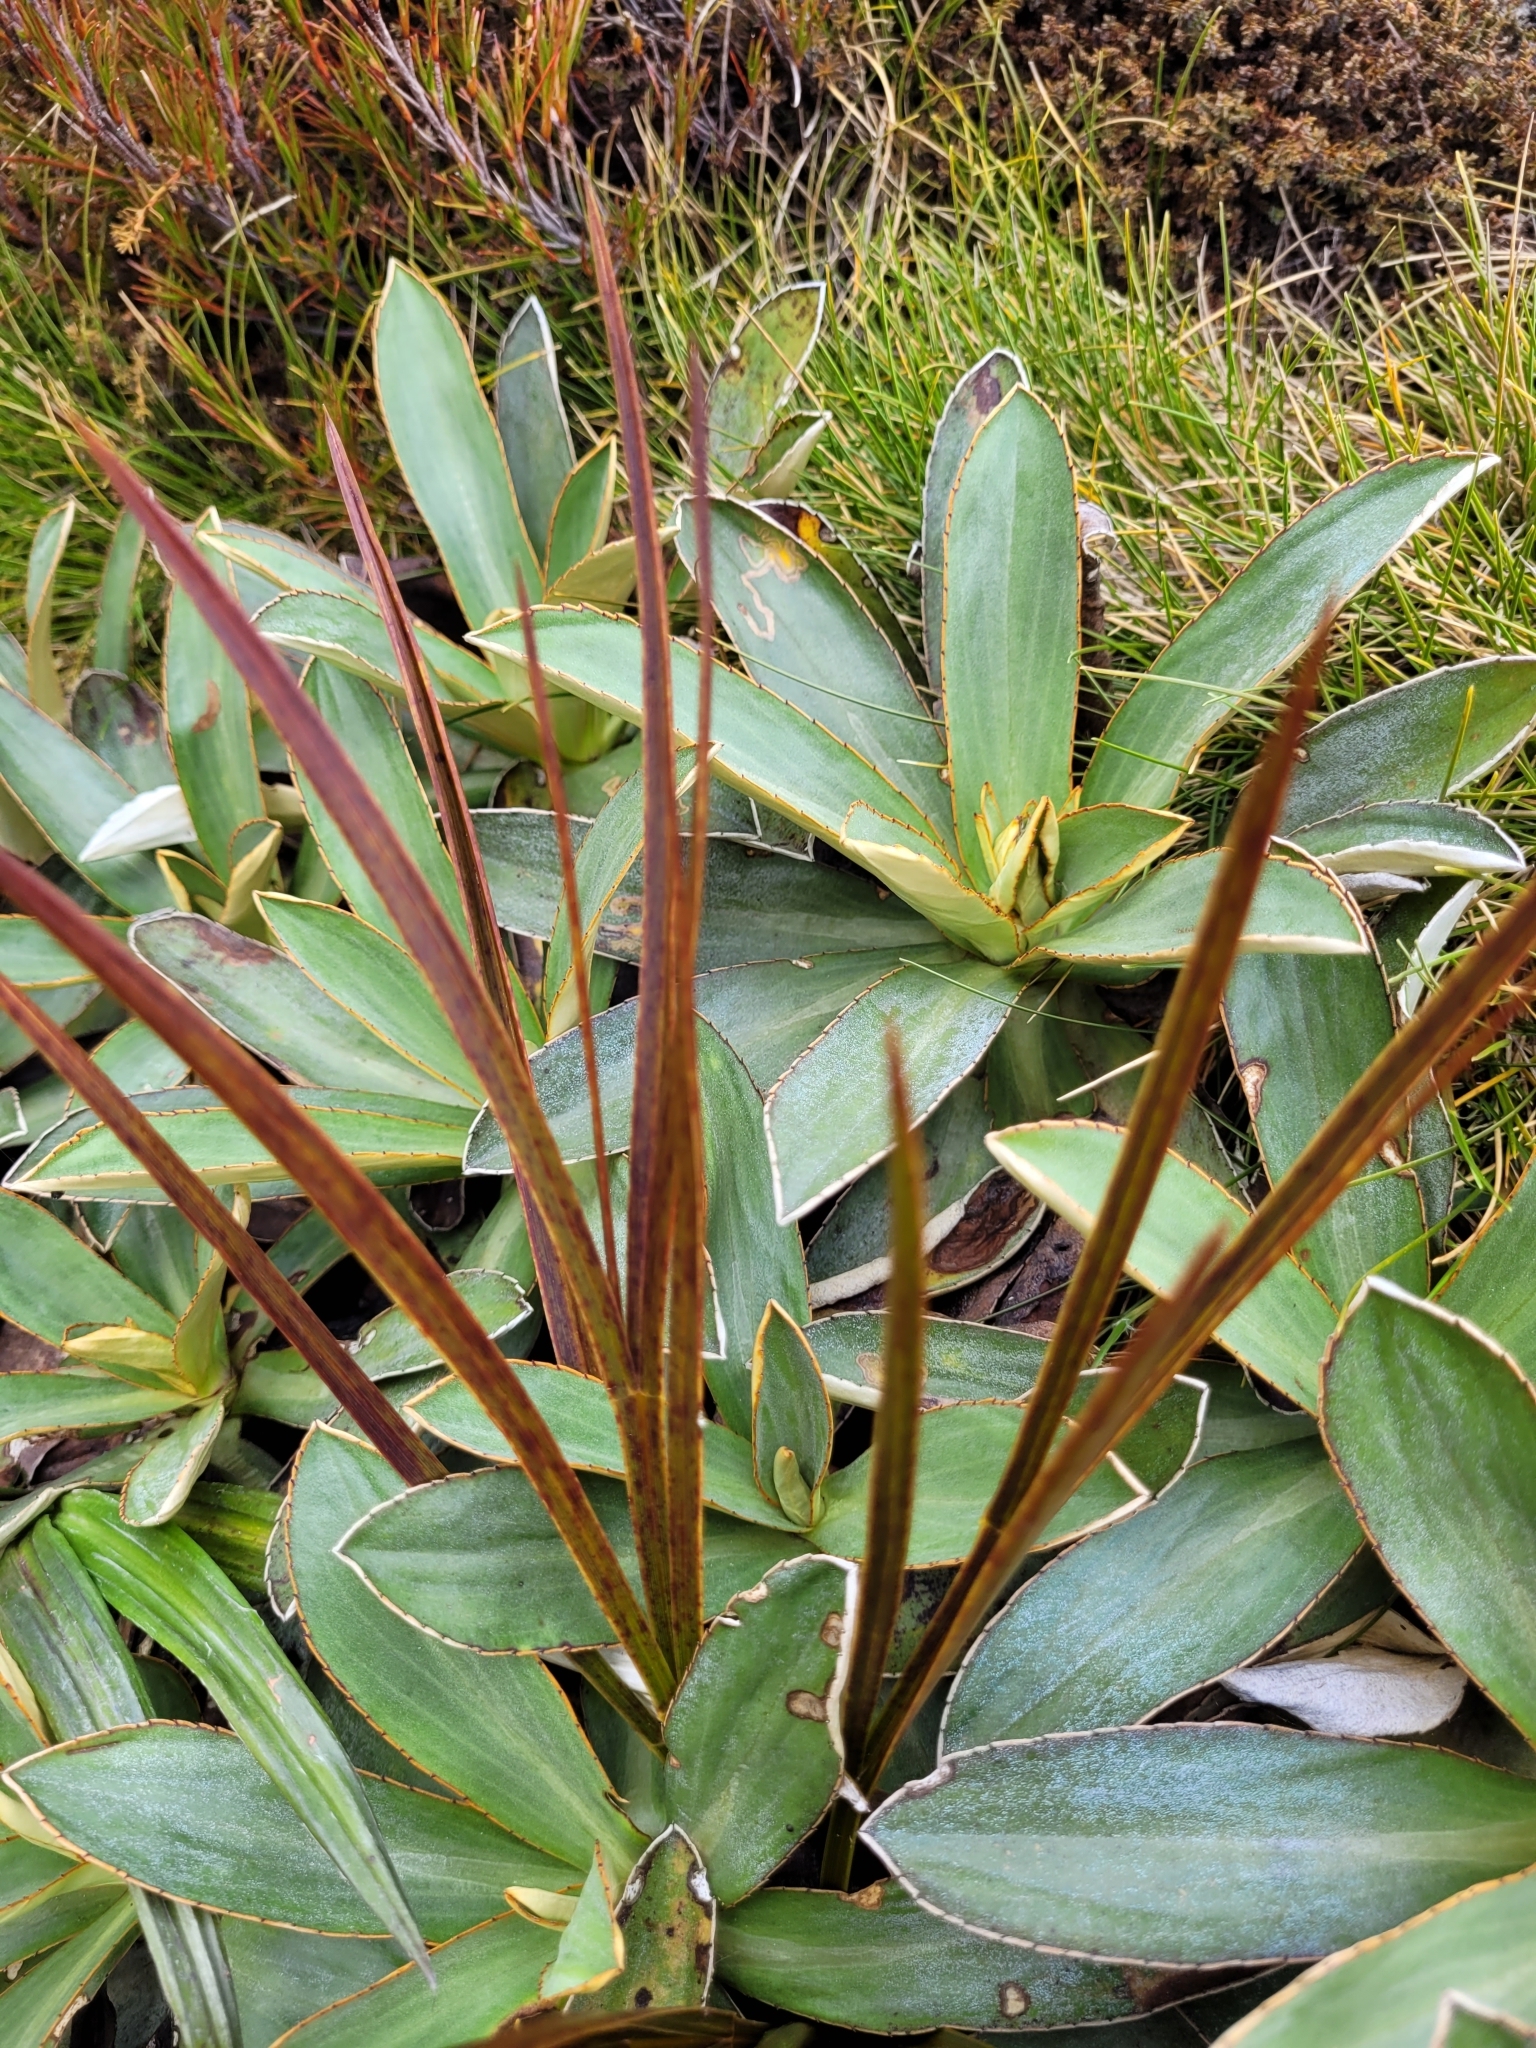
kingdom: Plantae
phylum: Tracheophyta
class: Magnoliopsida
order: Apiales
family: Apiaceae
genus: Aciphylla
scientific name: Aciphylla trifoliolata
